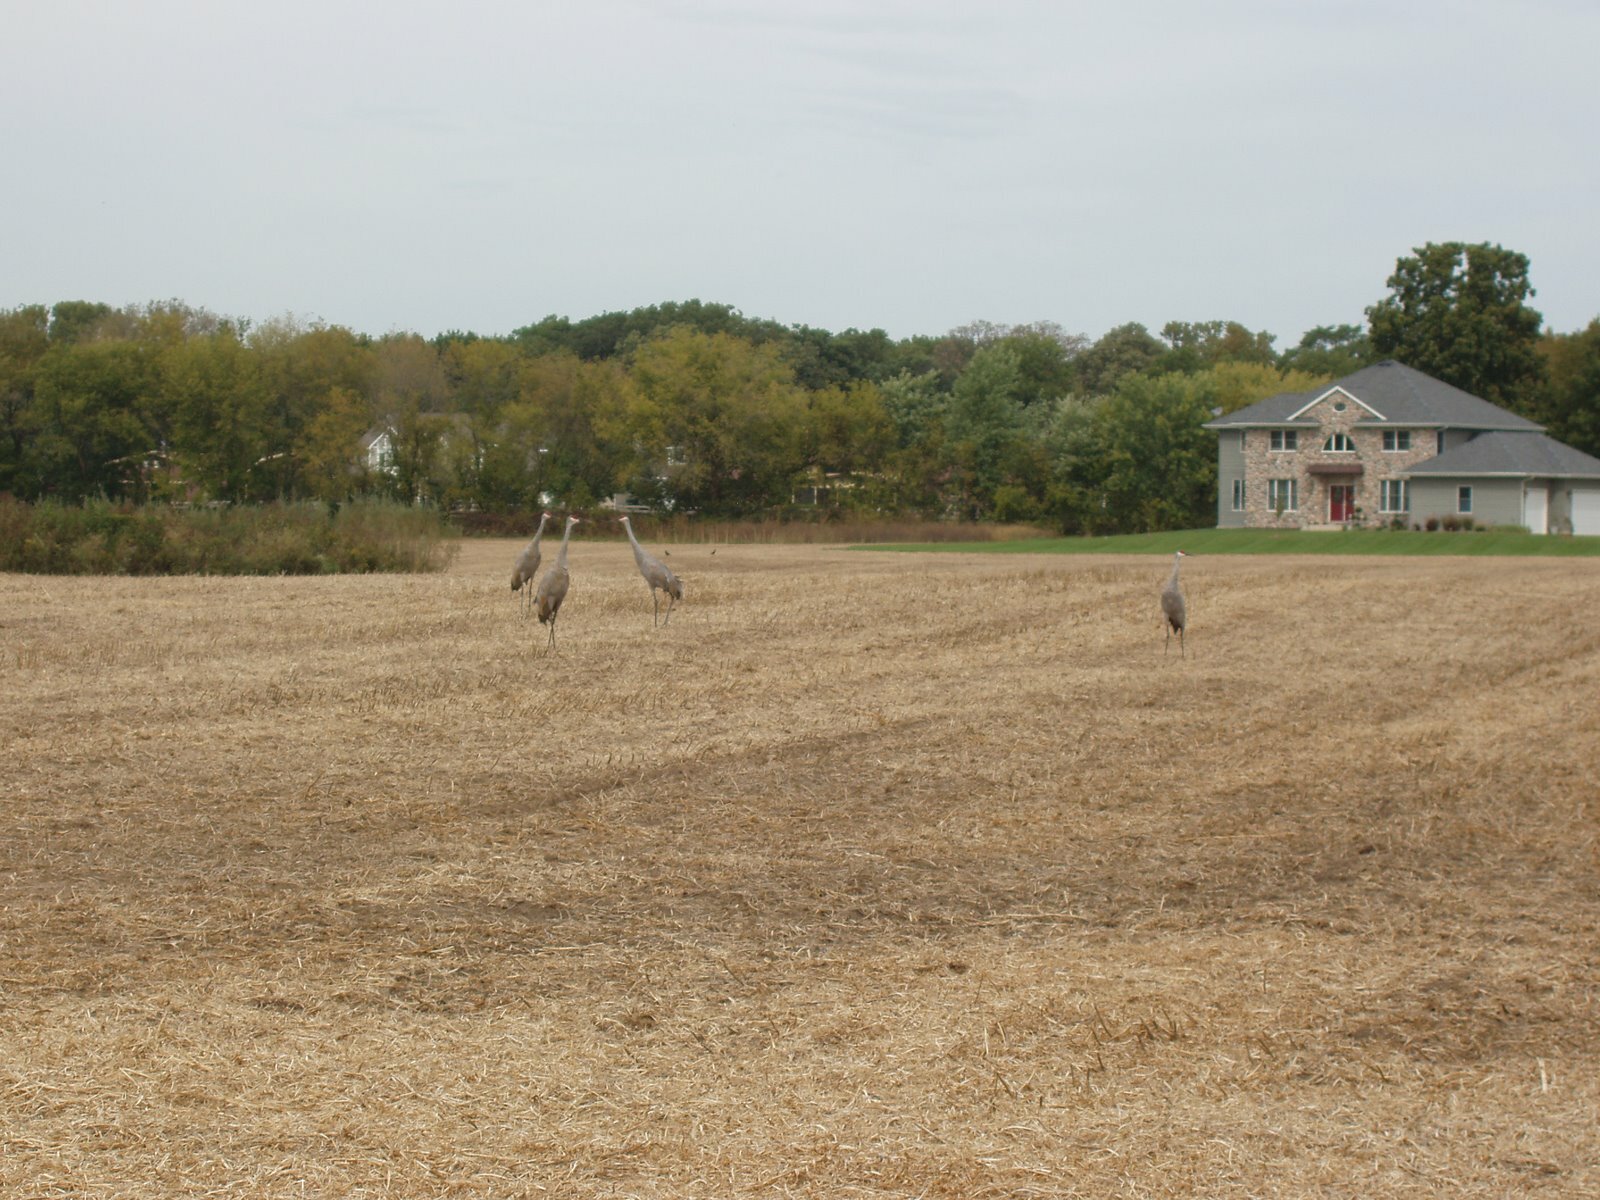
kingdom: Animalia
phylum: Chordata
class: Aves
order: Gruiformes
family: Gruidae
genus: Grus
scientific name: Grus canadensis
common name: Sandhill crane
